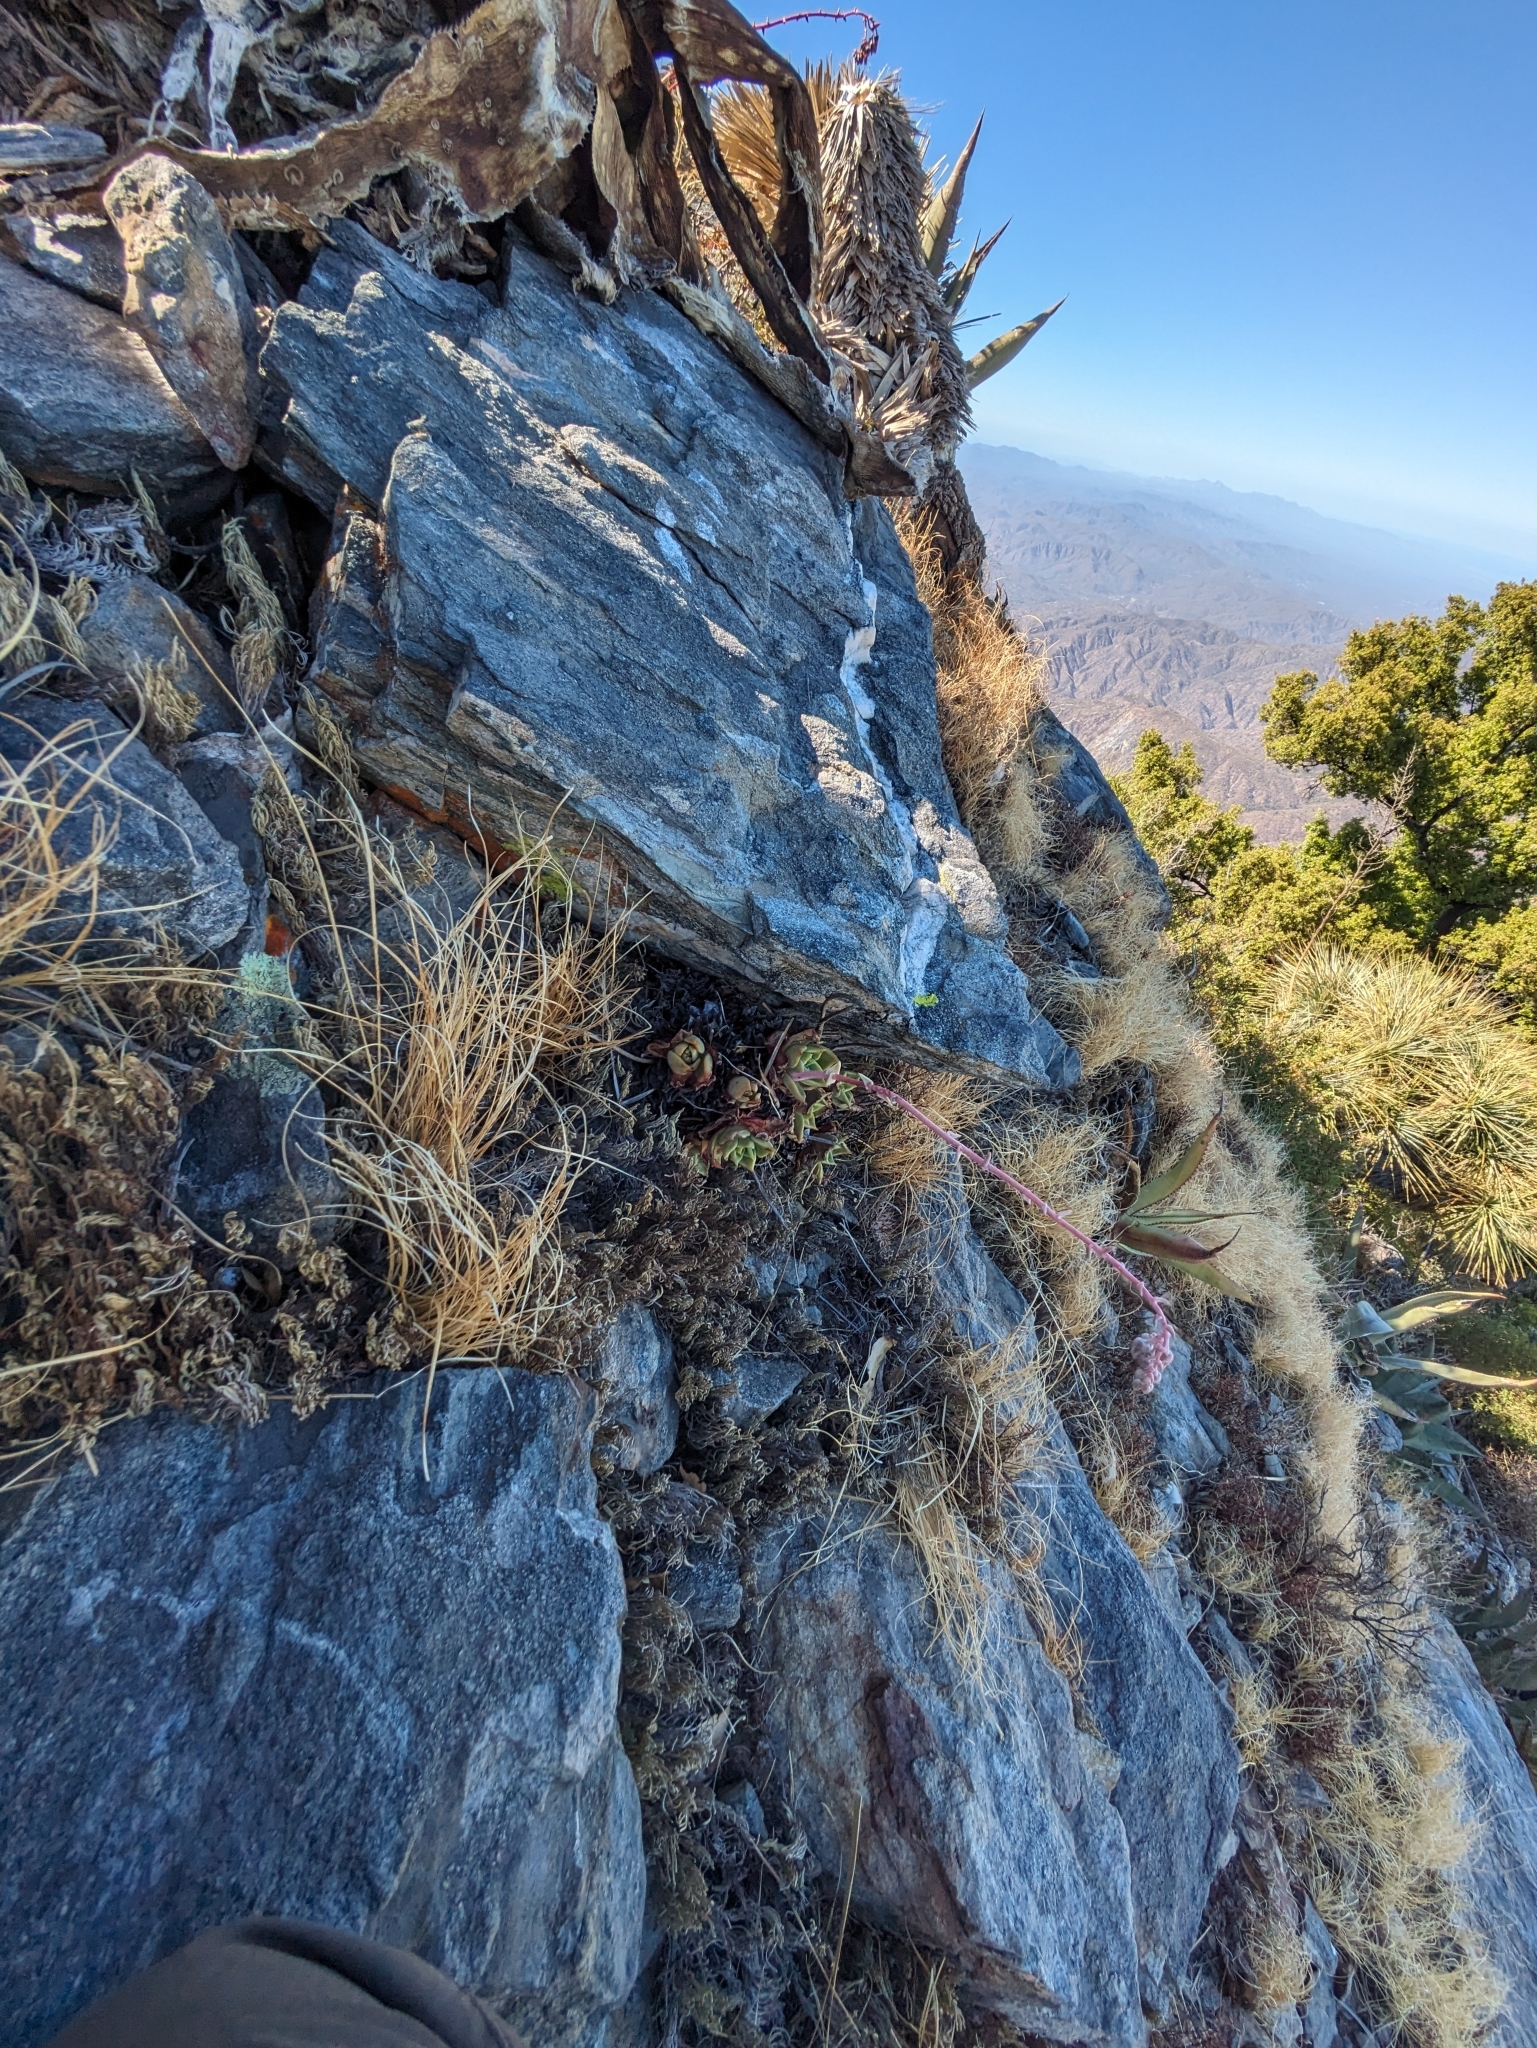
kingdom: Plantae
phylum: Tracheophyta
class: Magnoliopsida
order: Saxifragales
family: Crassulaceae
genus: Dudleya
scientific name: Dudleya rigida
